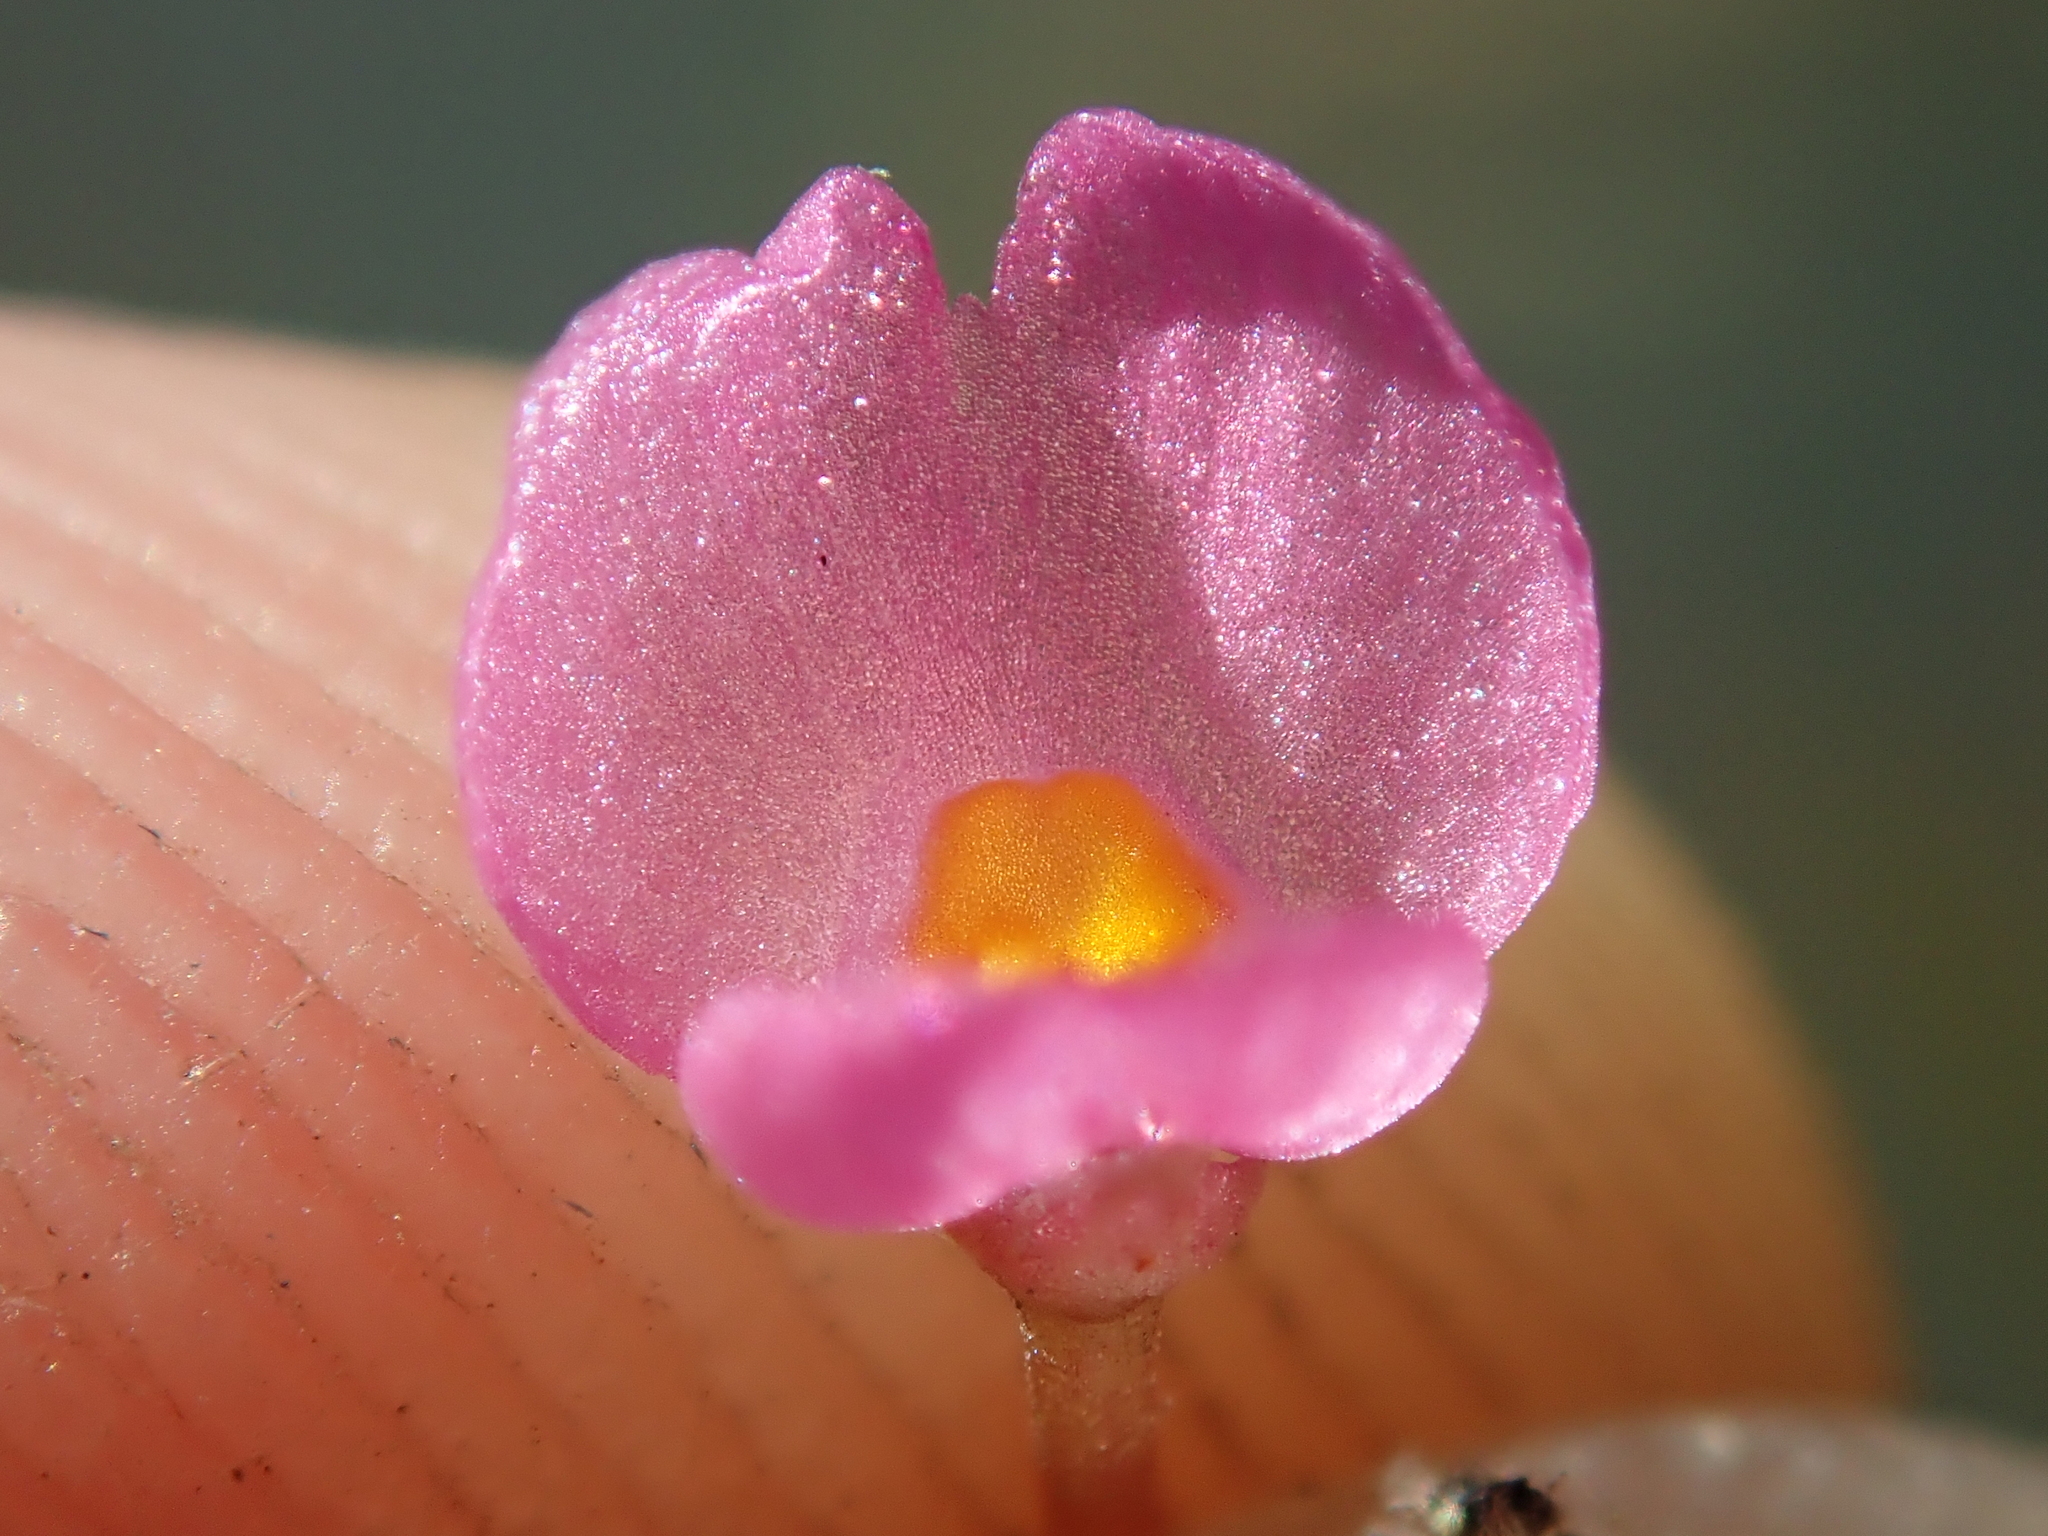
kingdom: Plantae
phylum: Tracheophyta
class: Magnoliopsida
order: Lamiales
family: Lentibulariaceae
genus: Utricularia
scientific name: Utricularia hydrocarpa
